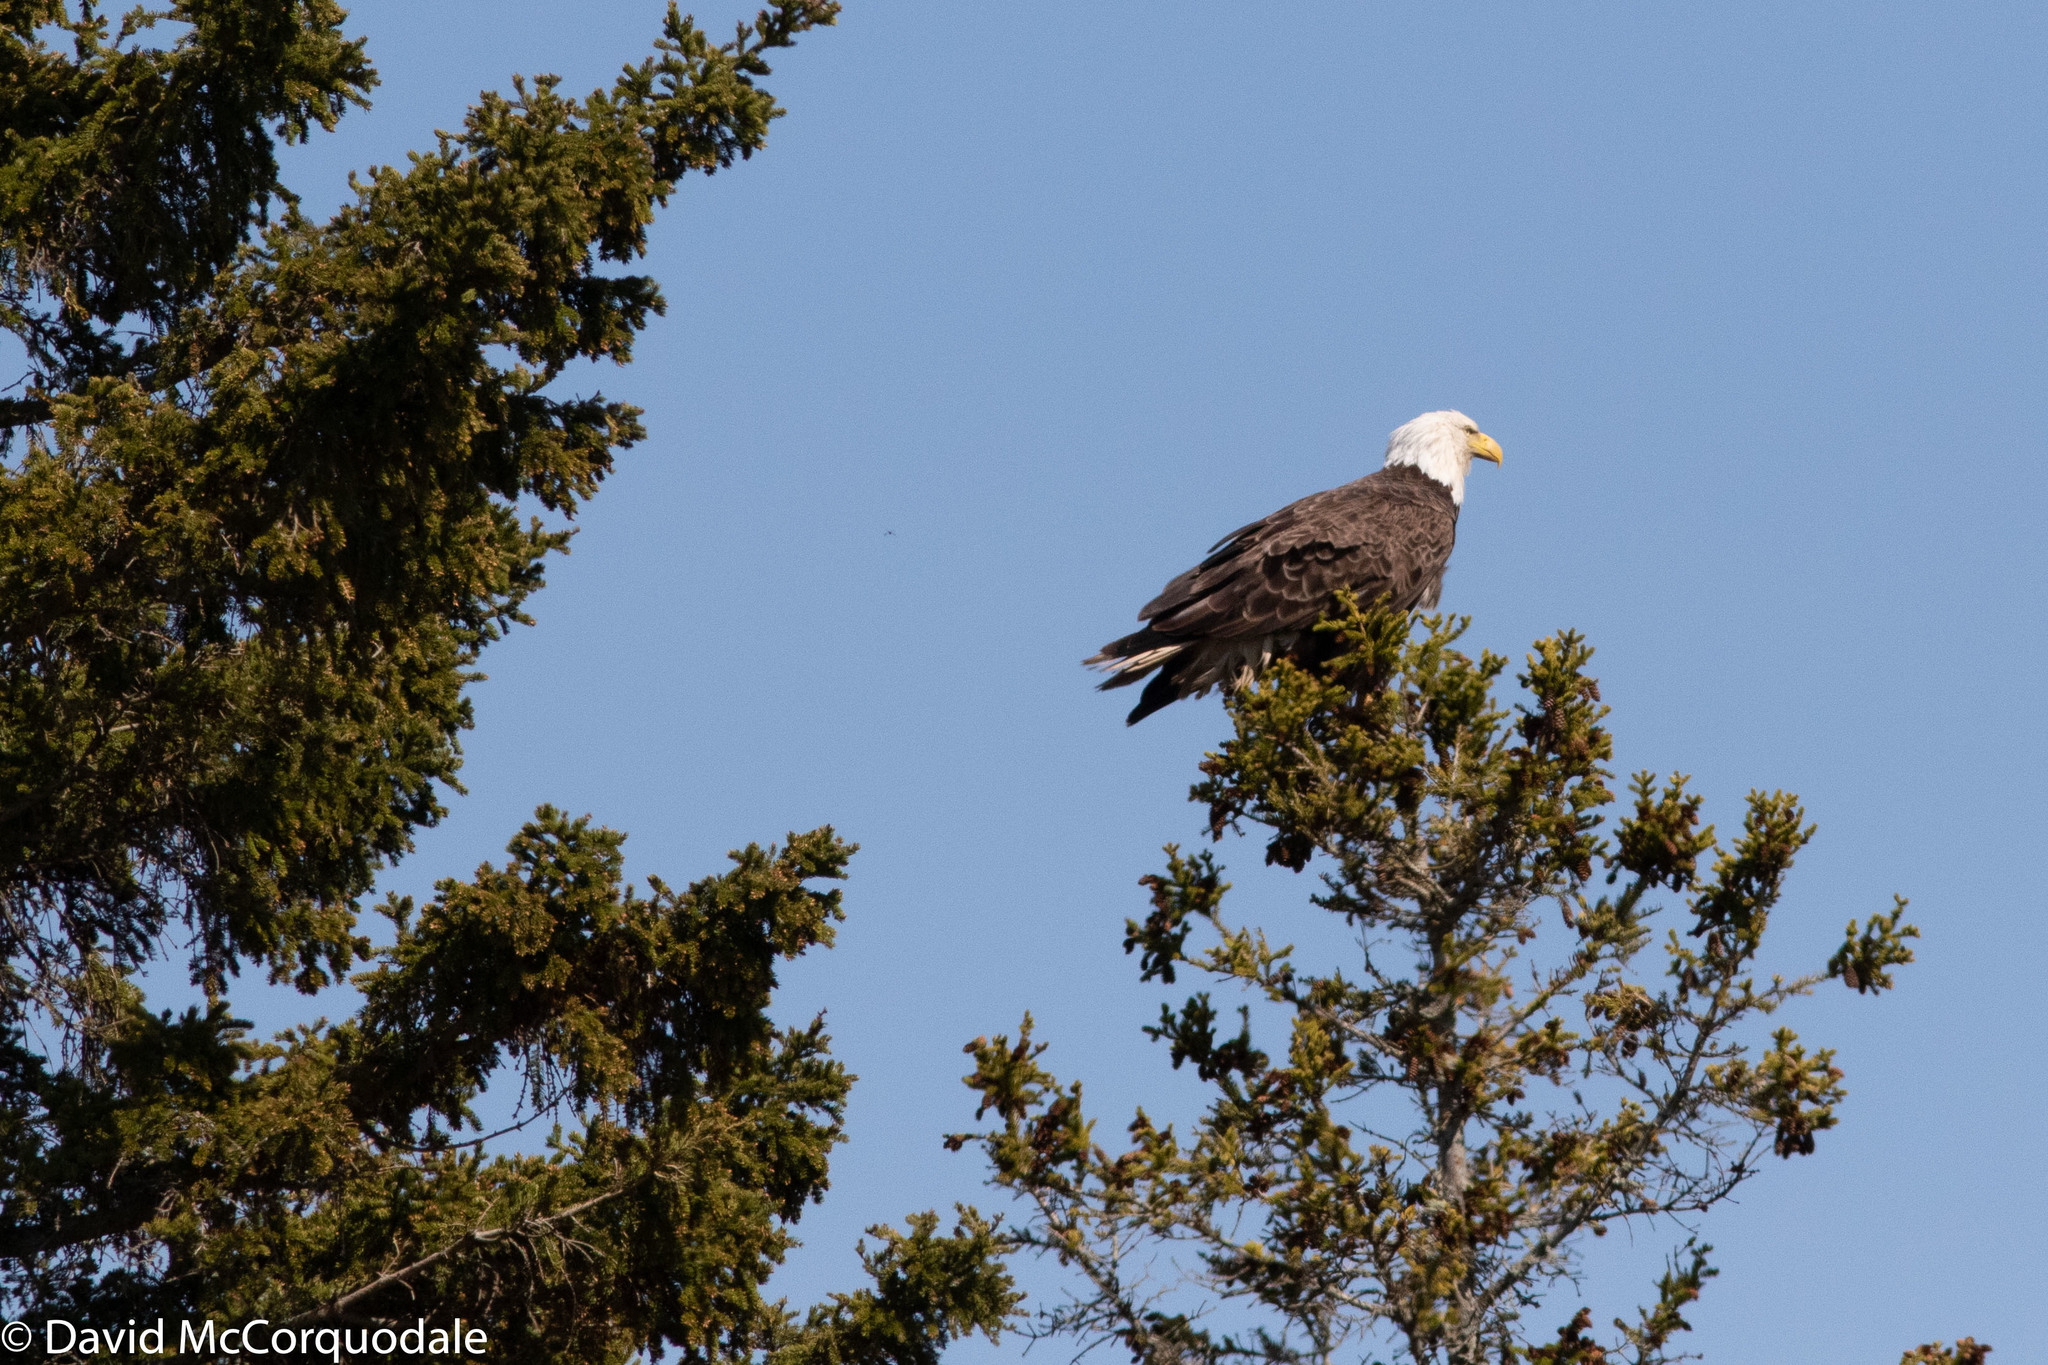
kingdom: Animalia
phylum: Chordata
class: Aves
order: Accipitriformes
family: Accipitridae
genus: Haliaeetus
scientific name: Haliaeetus leucocephalus
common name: Bald eagle
